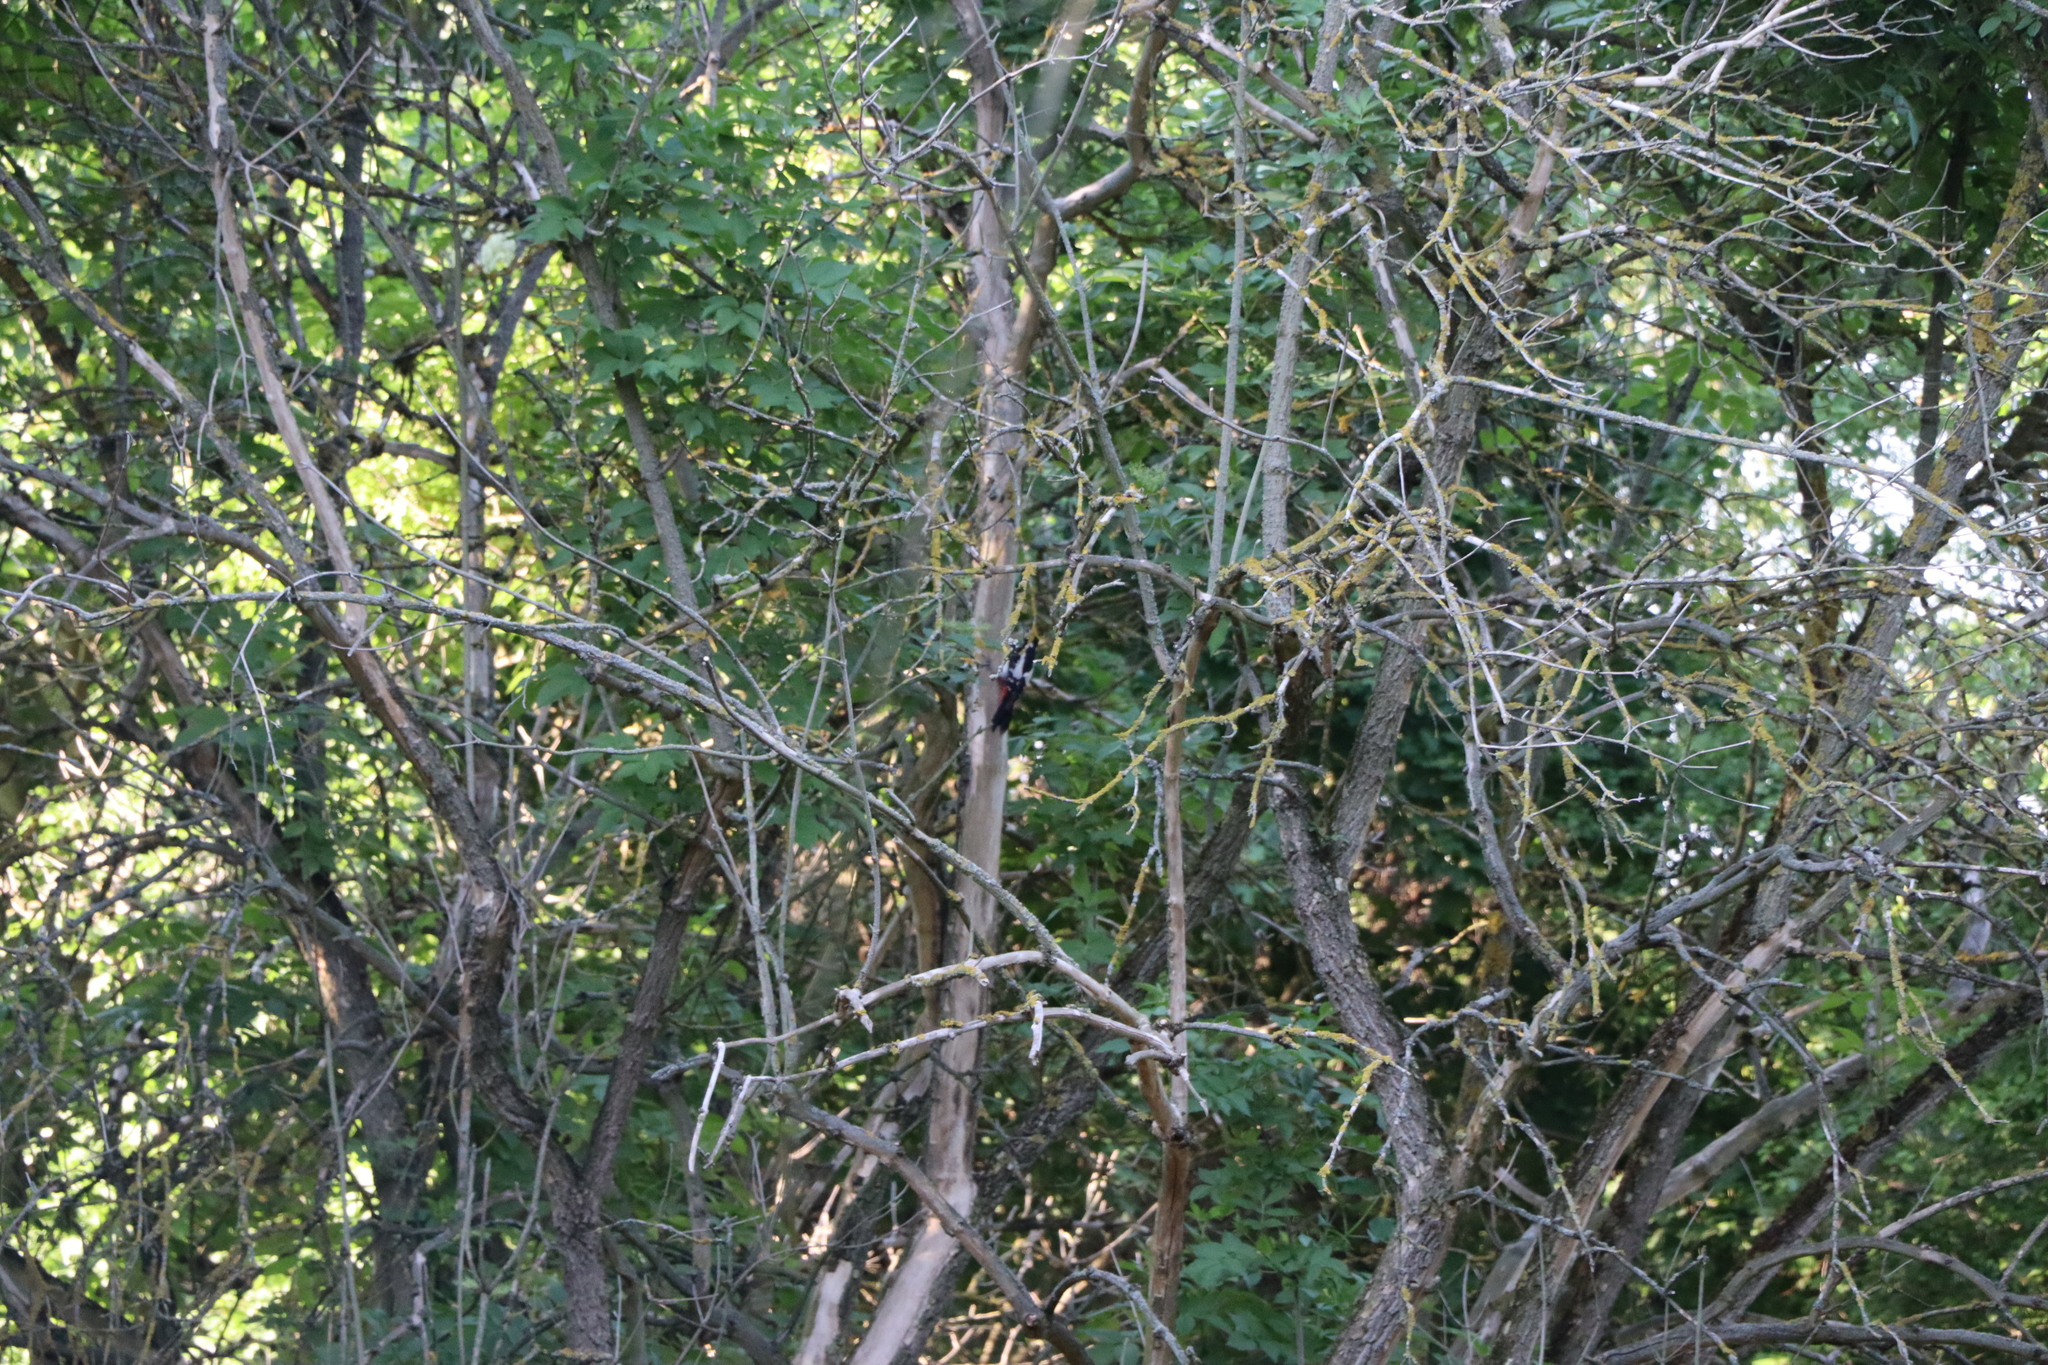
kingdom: Animalia
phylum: Chordata
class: Aves
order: Piciformes
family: Picidae
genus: Dendrocopos
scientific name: Dendrocopos major
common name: Great spotted woodpecker
